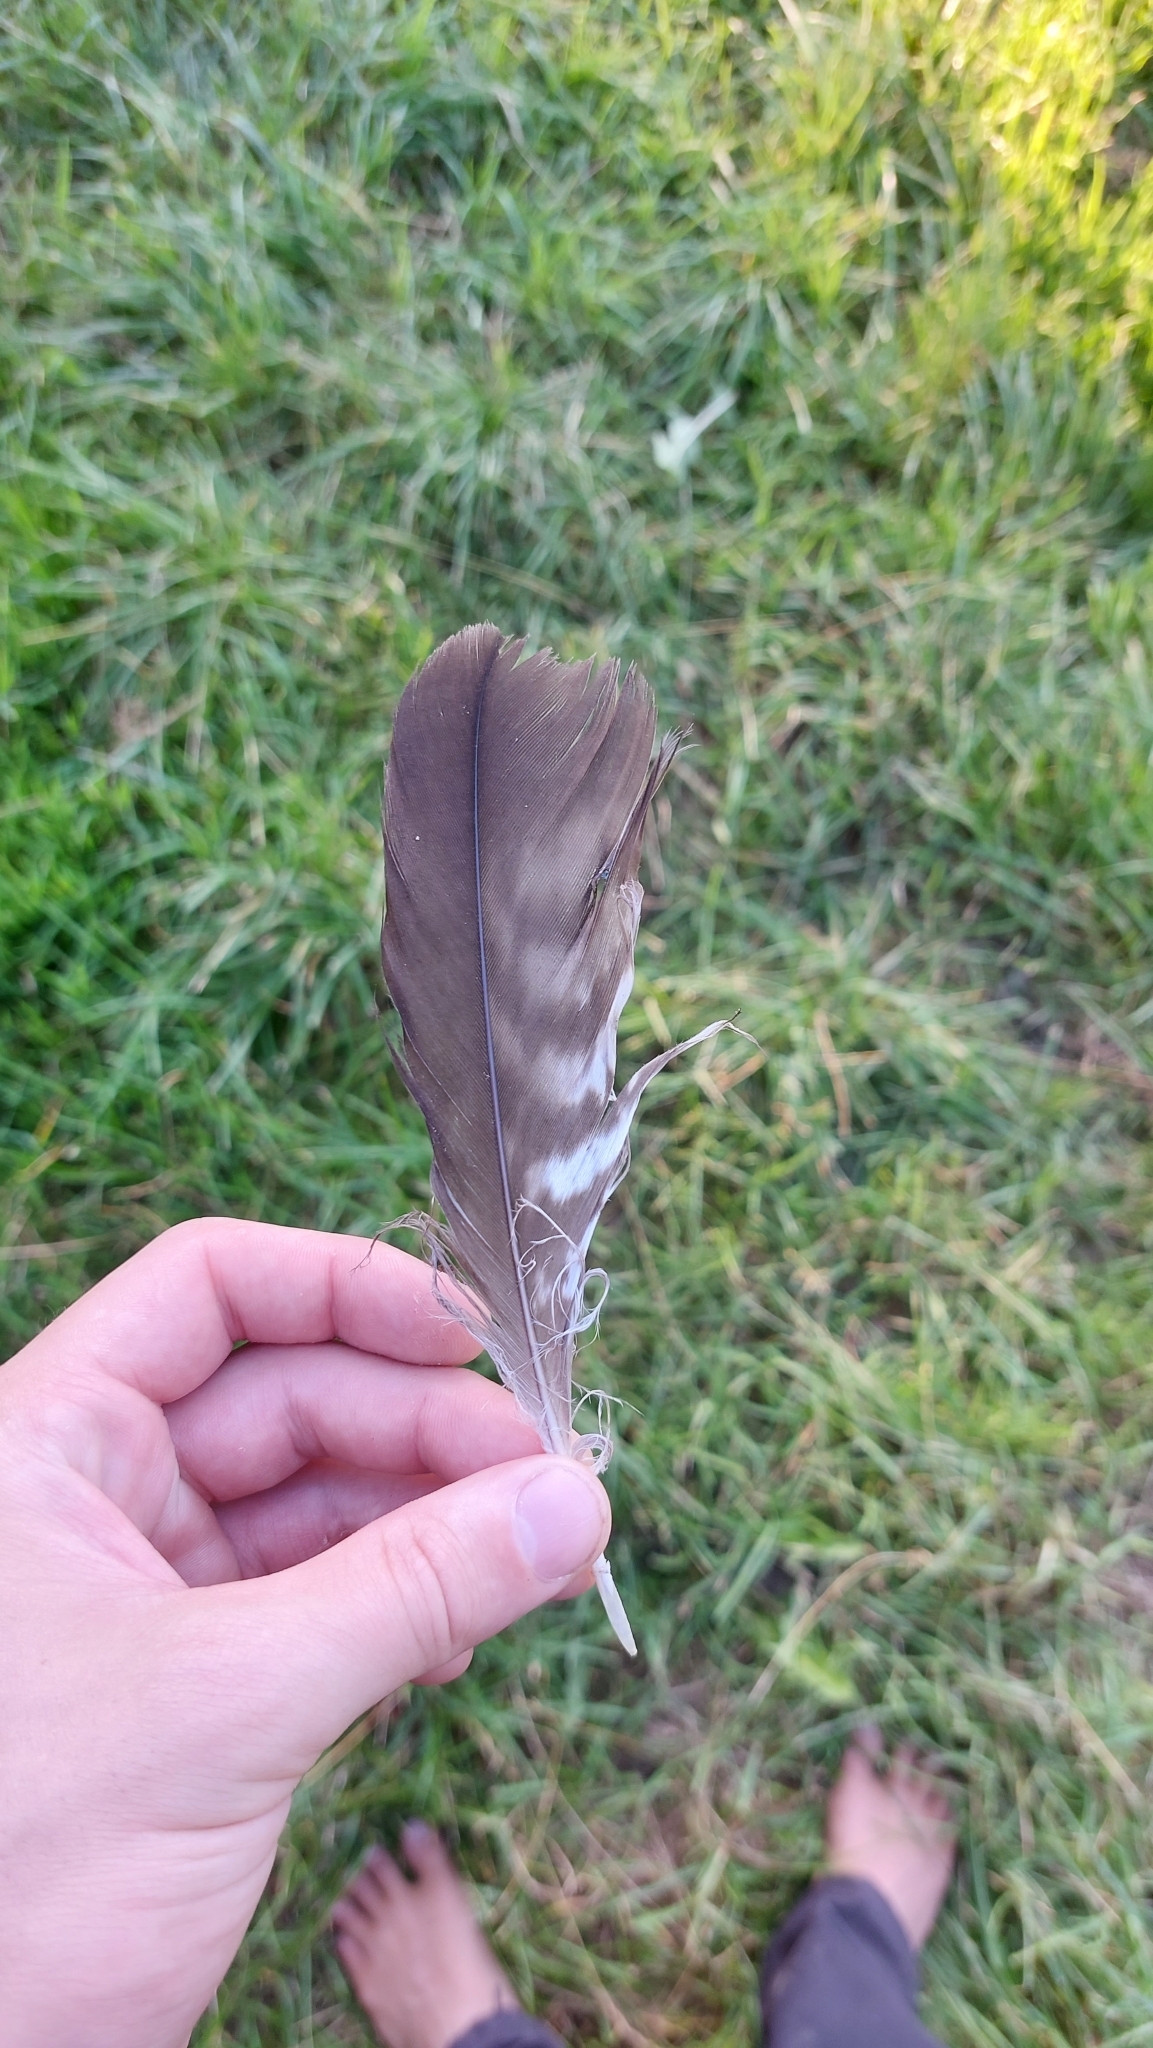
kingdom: Animalia
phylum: Chordata
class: Aves
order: Accipitriformes
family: Accipitridae
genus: Buteo
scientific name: Buteo buteo
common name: Common buzzard
